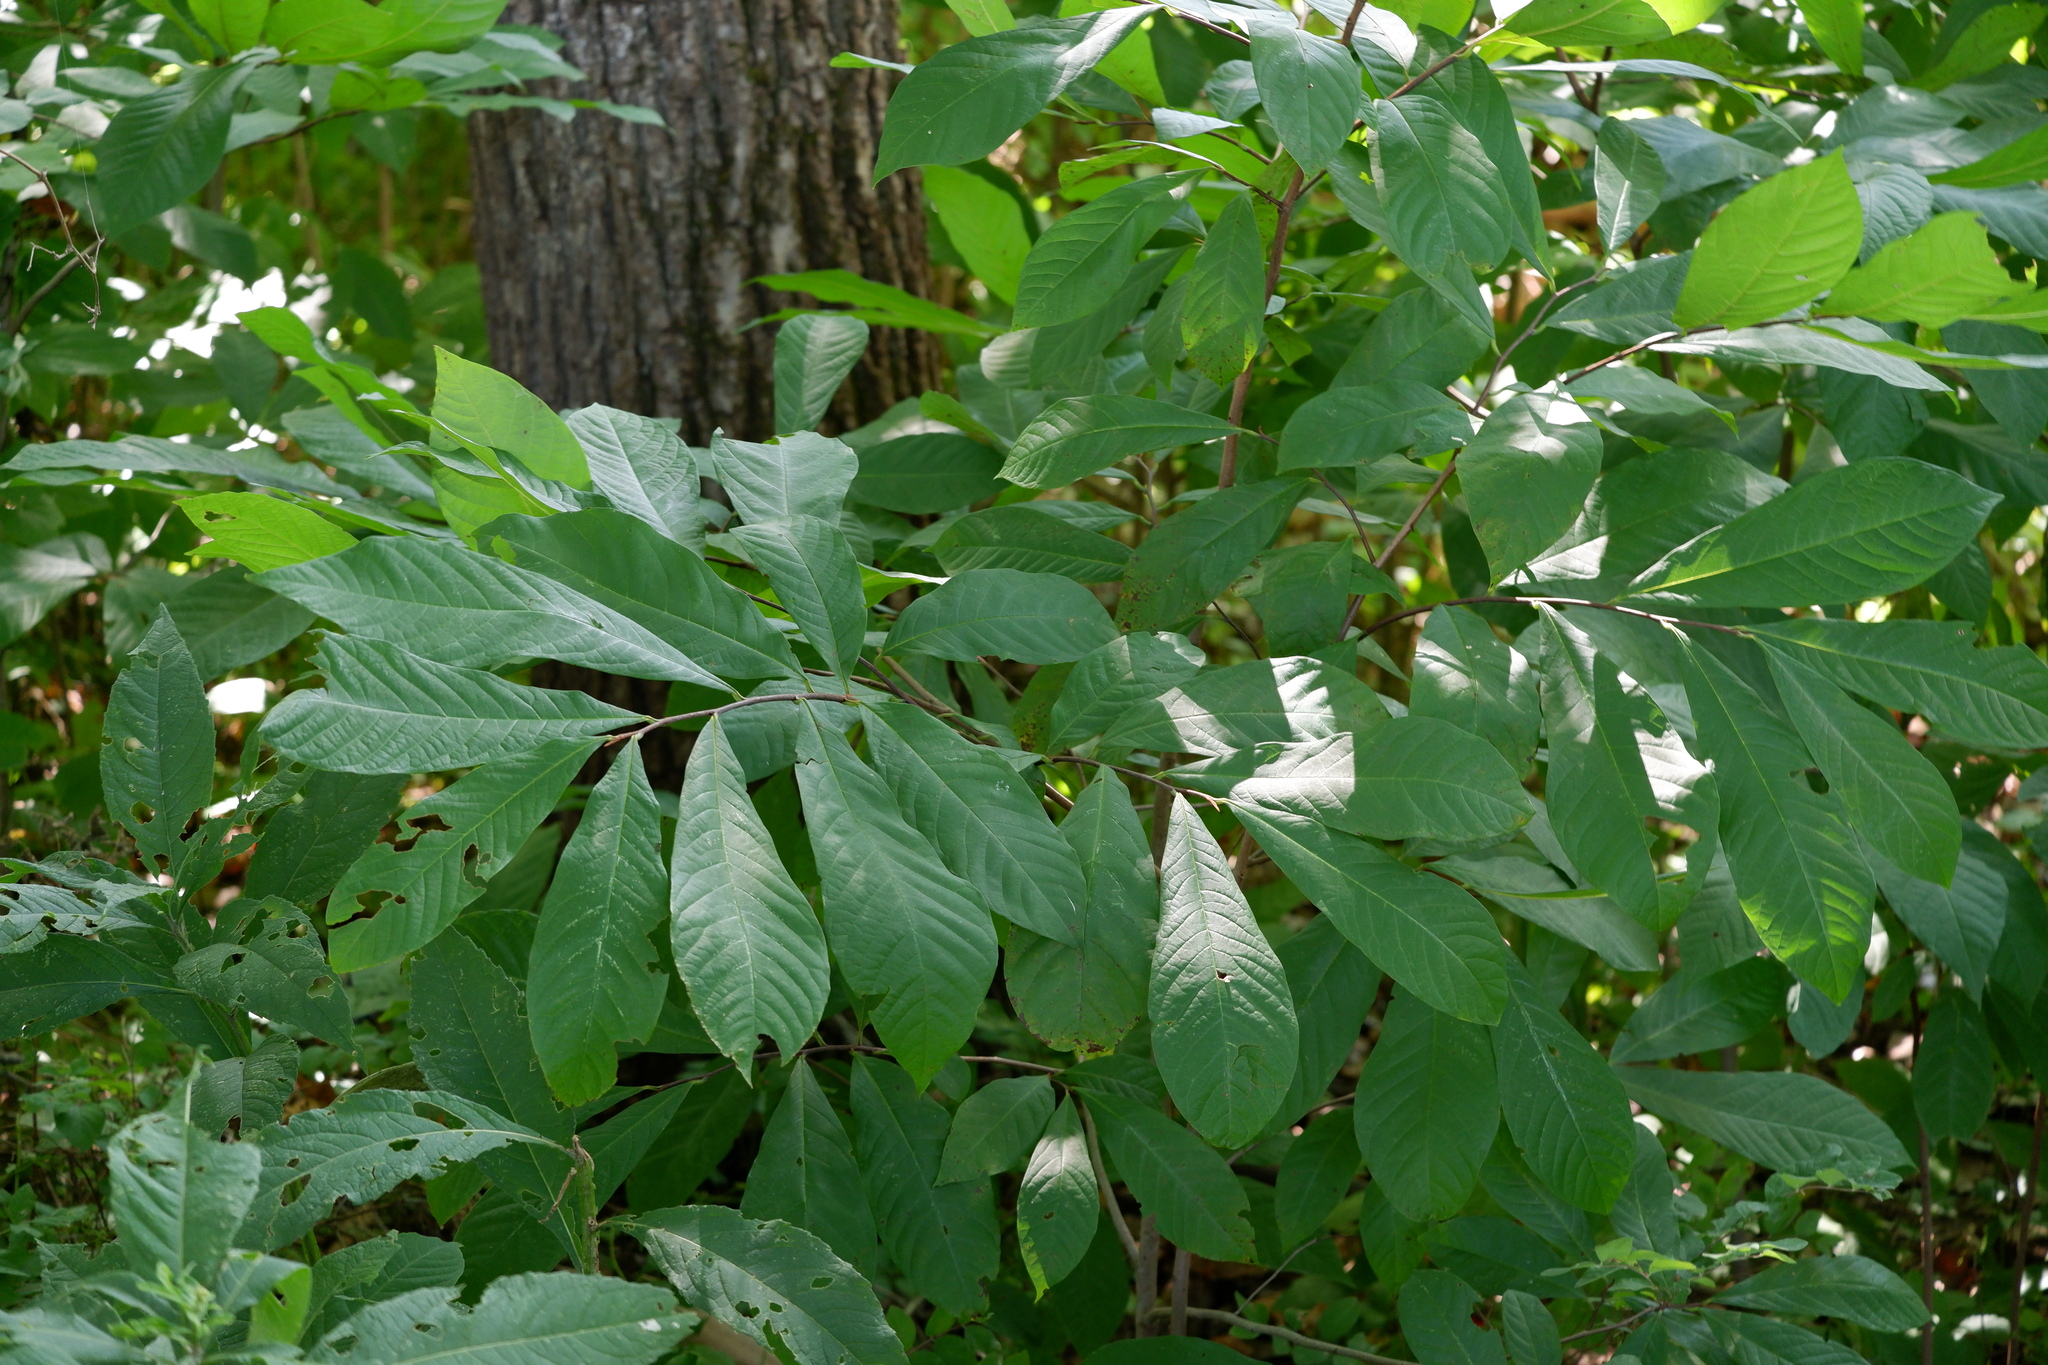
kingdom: Plantae
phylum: Tracheophyta
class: Magnoliopsida
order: Magnoliales
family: Annonaceae
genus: Asimina
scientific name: Asimina triloba
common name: Dog-banana
